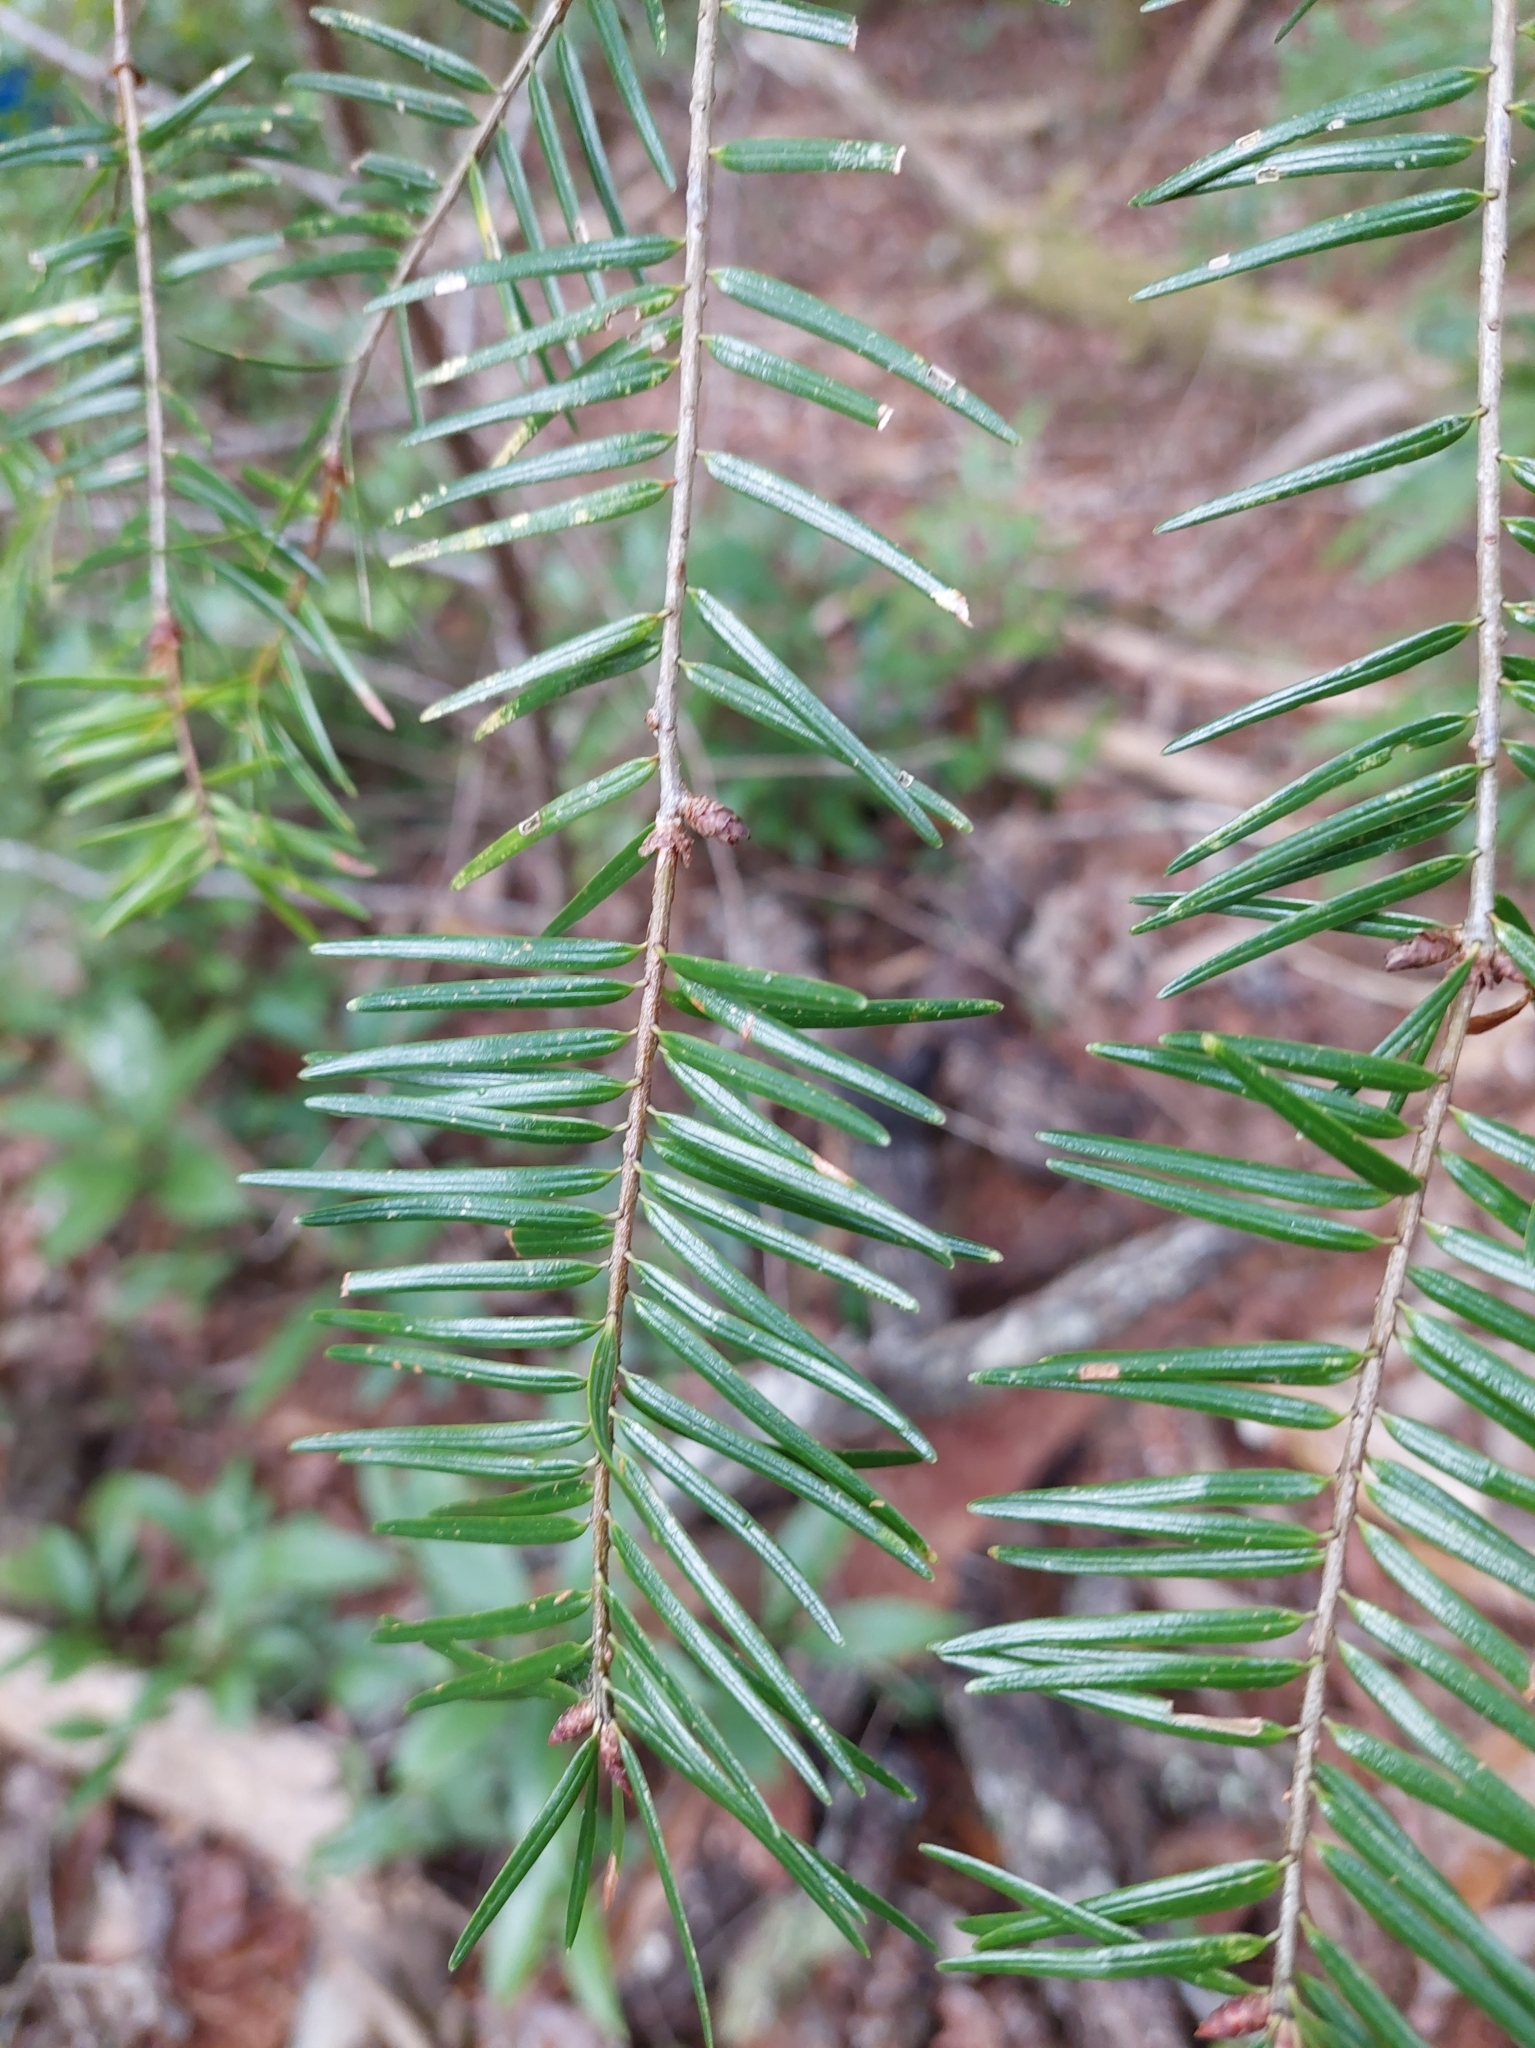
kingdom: Plantae
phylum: Tracheophyta
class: Pinopsida
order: Pinales
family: Pinaceae
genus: Pseudotsuga
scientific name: Pseudotsuga sinensis
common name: Chinese douglas-fir
